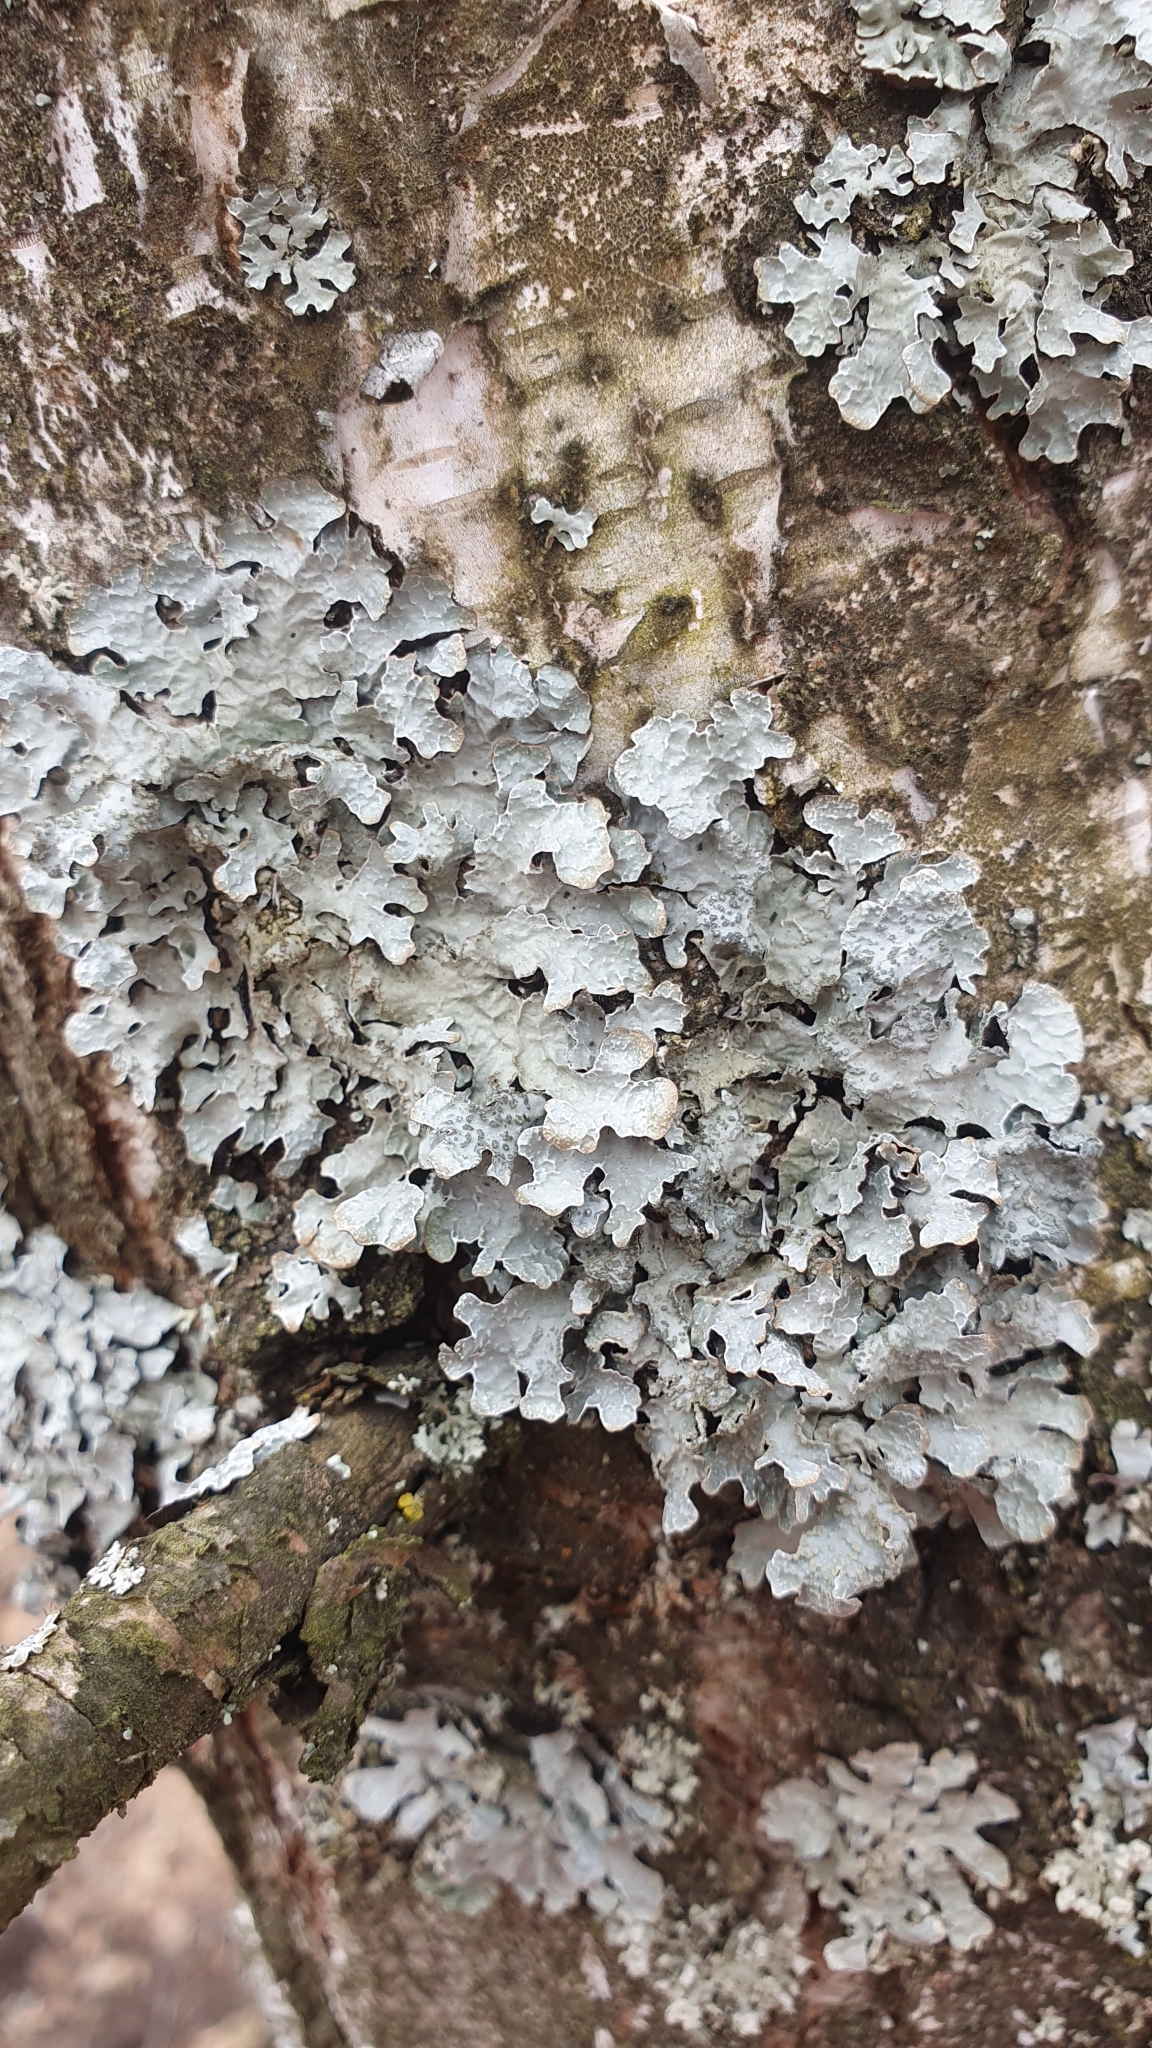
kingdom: Fungi
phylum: Ascomycota
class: Lecanoromycetes
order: Lecanorales
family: Parmeliaceae
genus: Parmelia
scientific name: Parmelia sulcata
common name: Netted shield lichen
